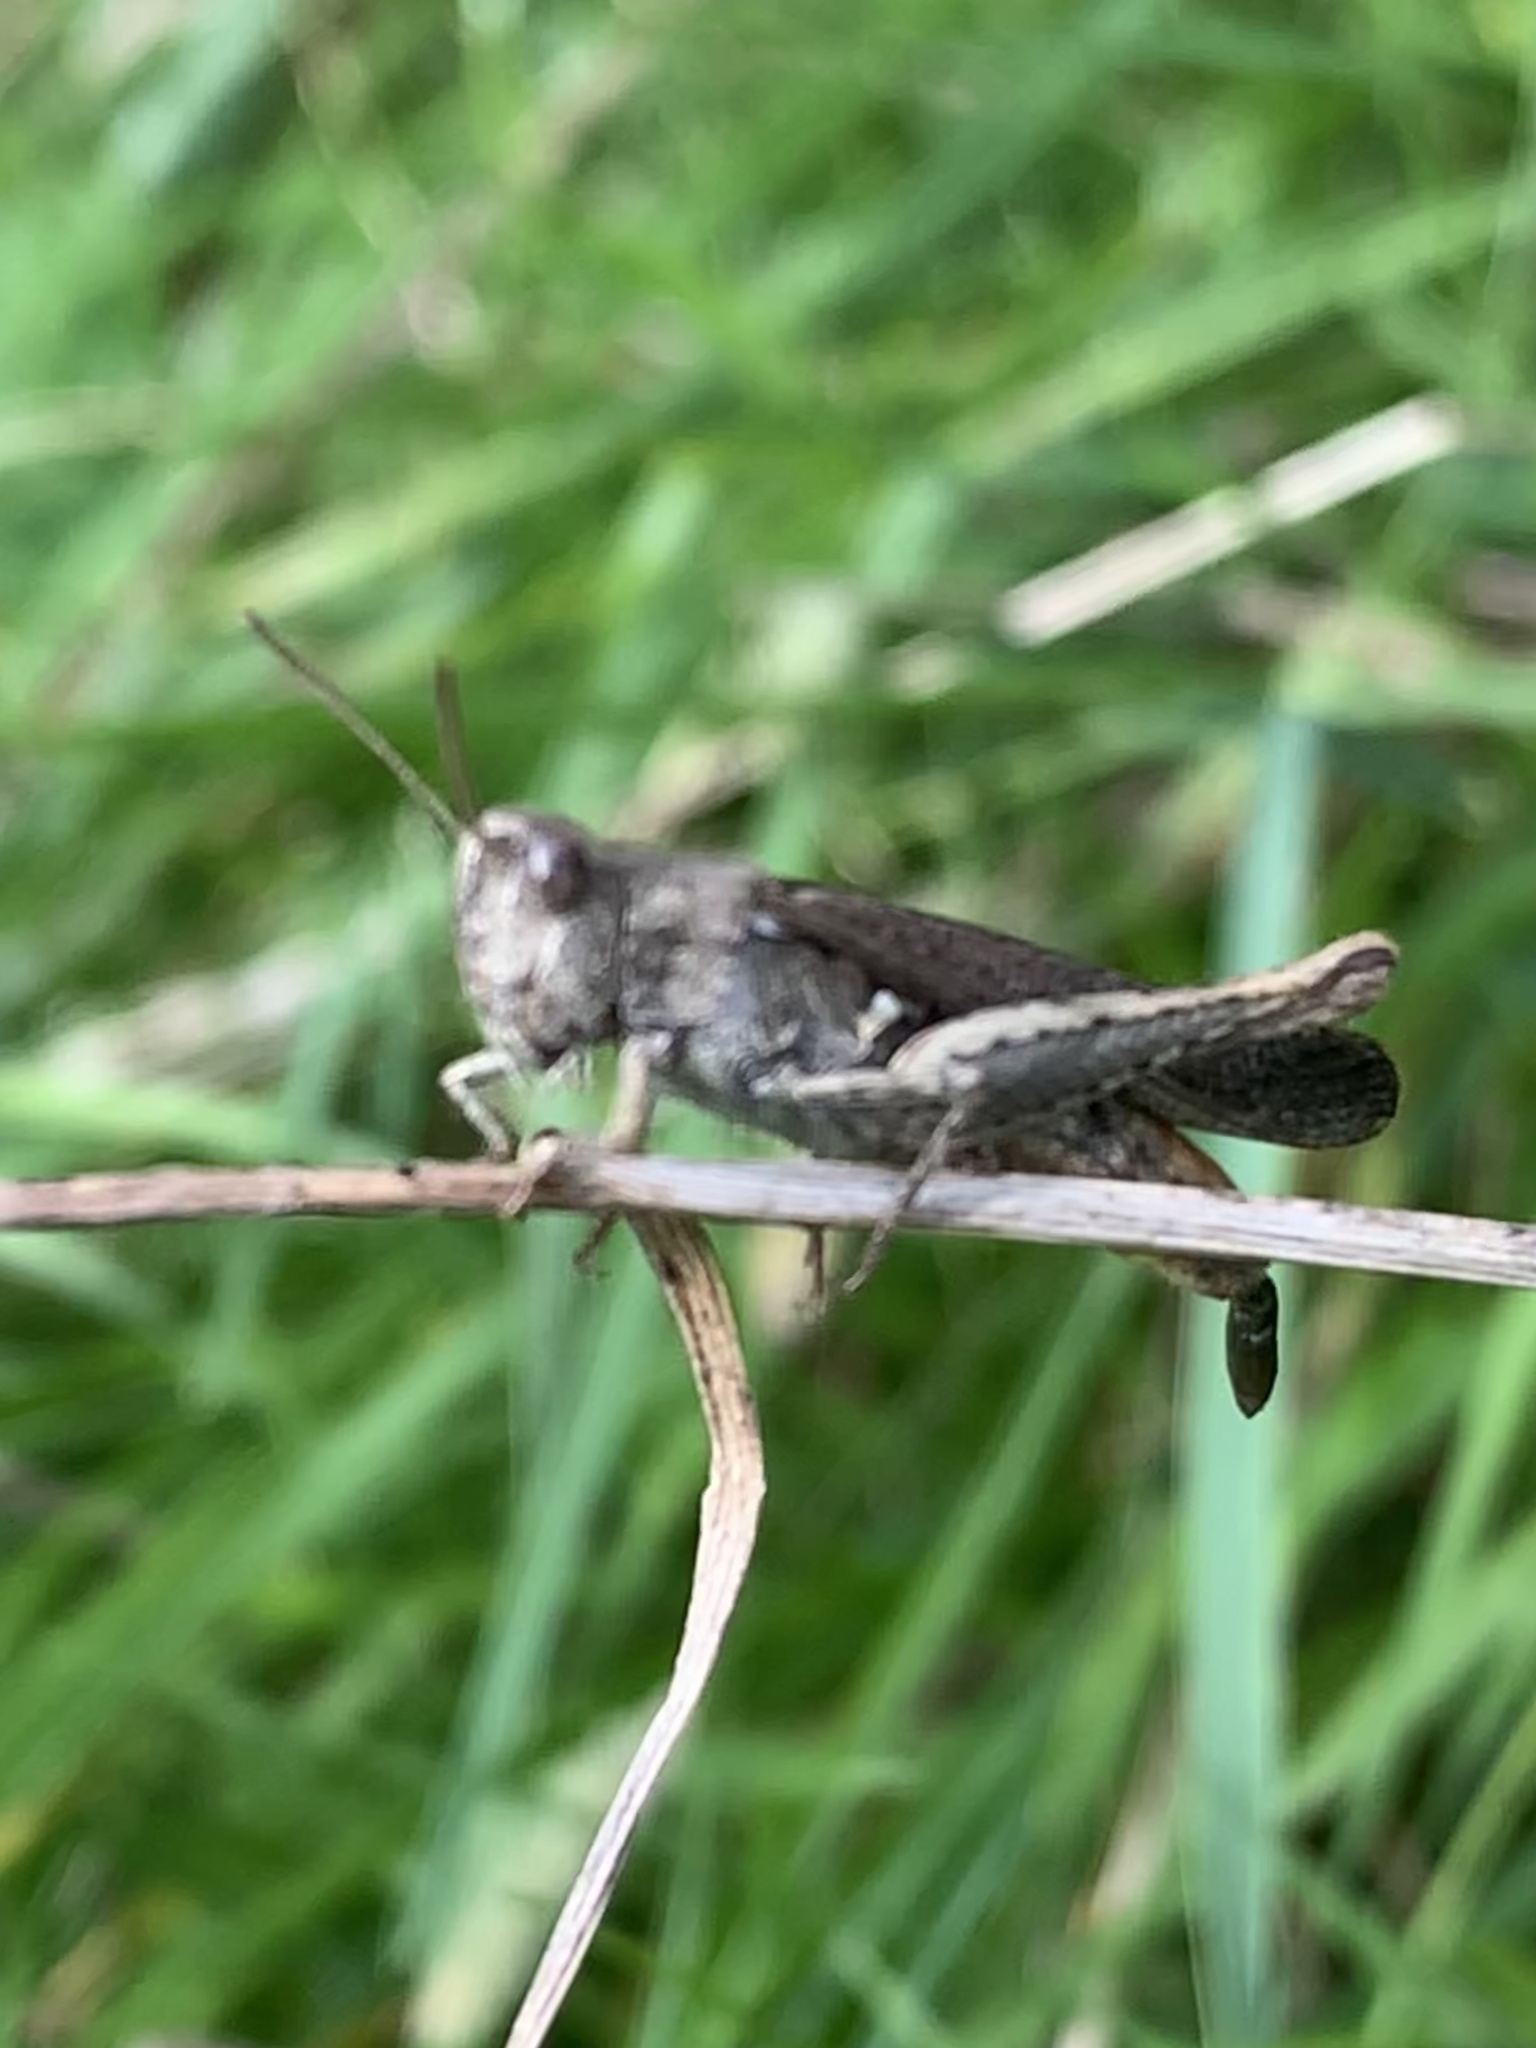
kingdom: Animalia
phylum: Arthropoda
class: Insecta
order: Orthoptera
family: Acrididae
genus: Chorthippus
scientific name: Chorthippus brunneus
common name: Field grasshopper
